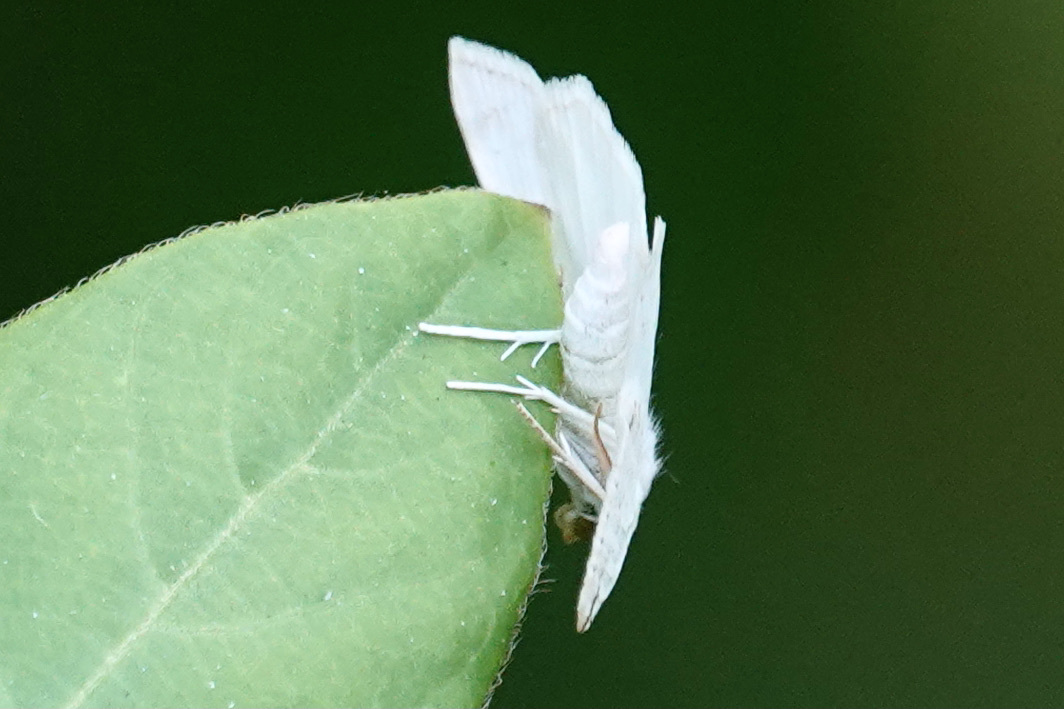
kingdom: Animalia
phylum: Arthropoda
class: Insecta
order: Lepidoptera
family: Geometridae
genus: Macaria
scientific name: Macaria pustularia
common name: Lesser maple spanworm moth
